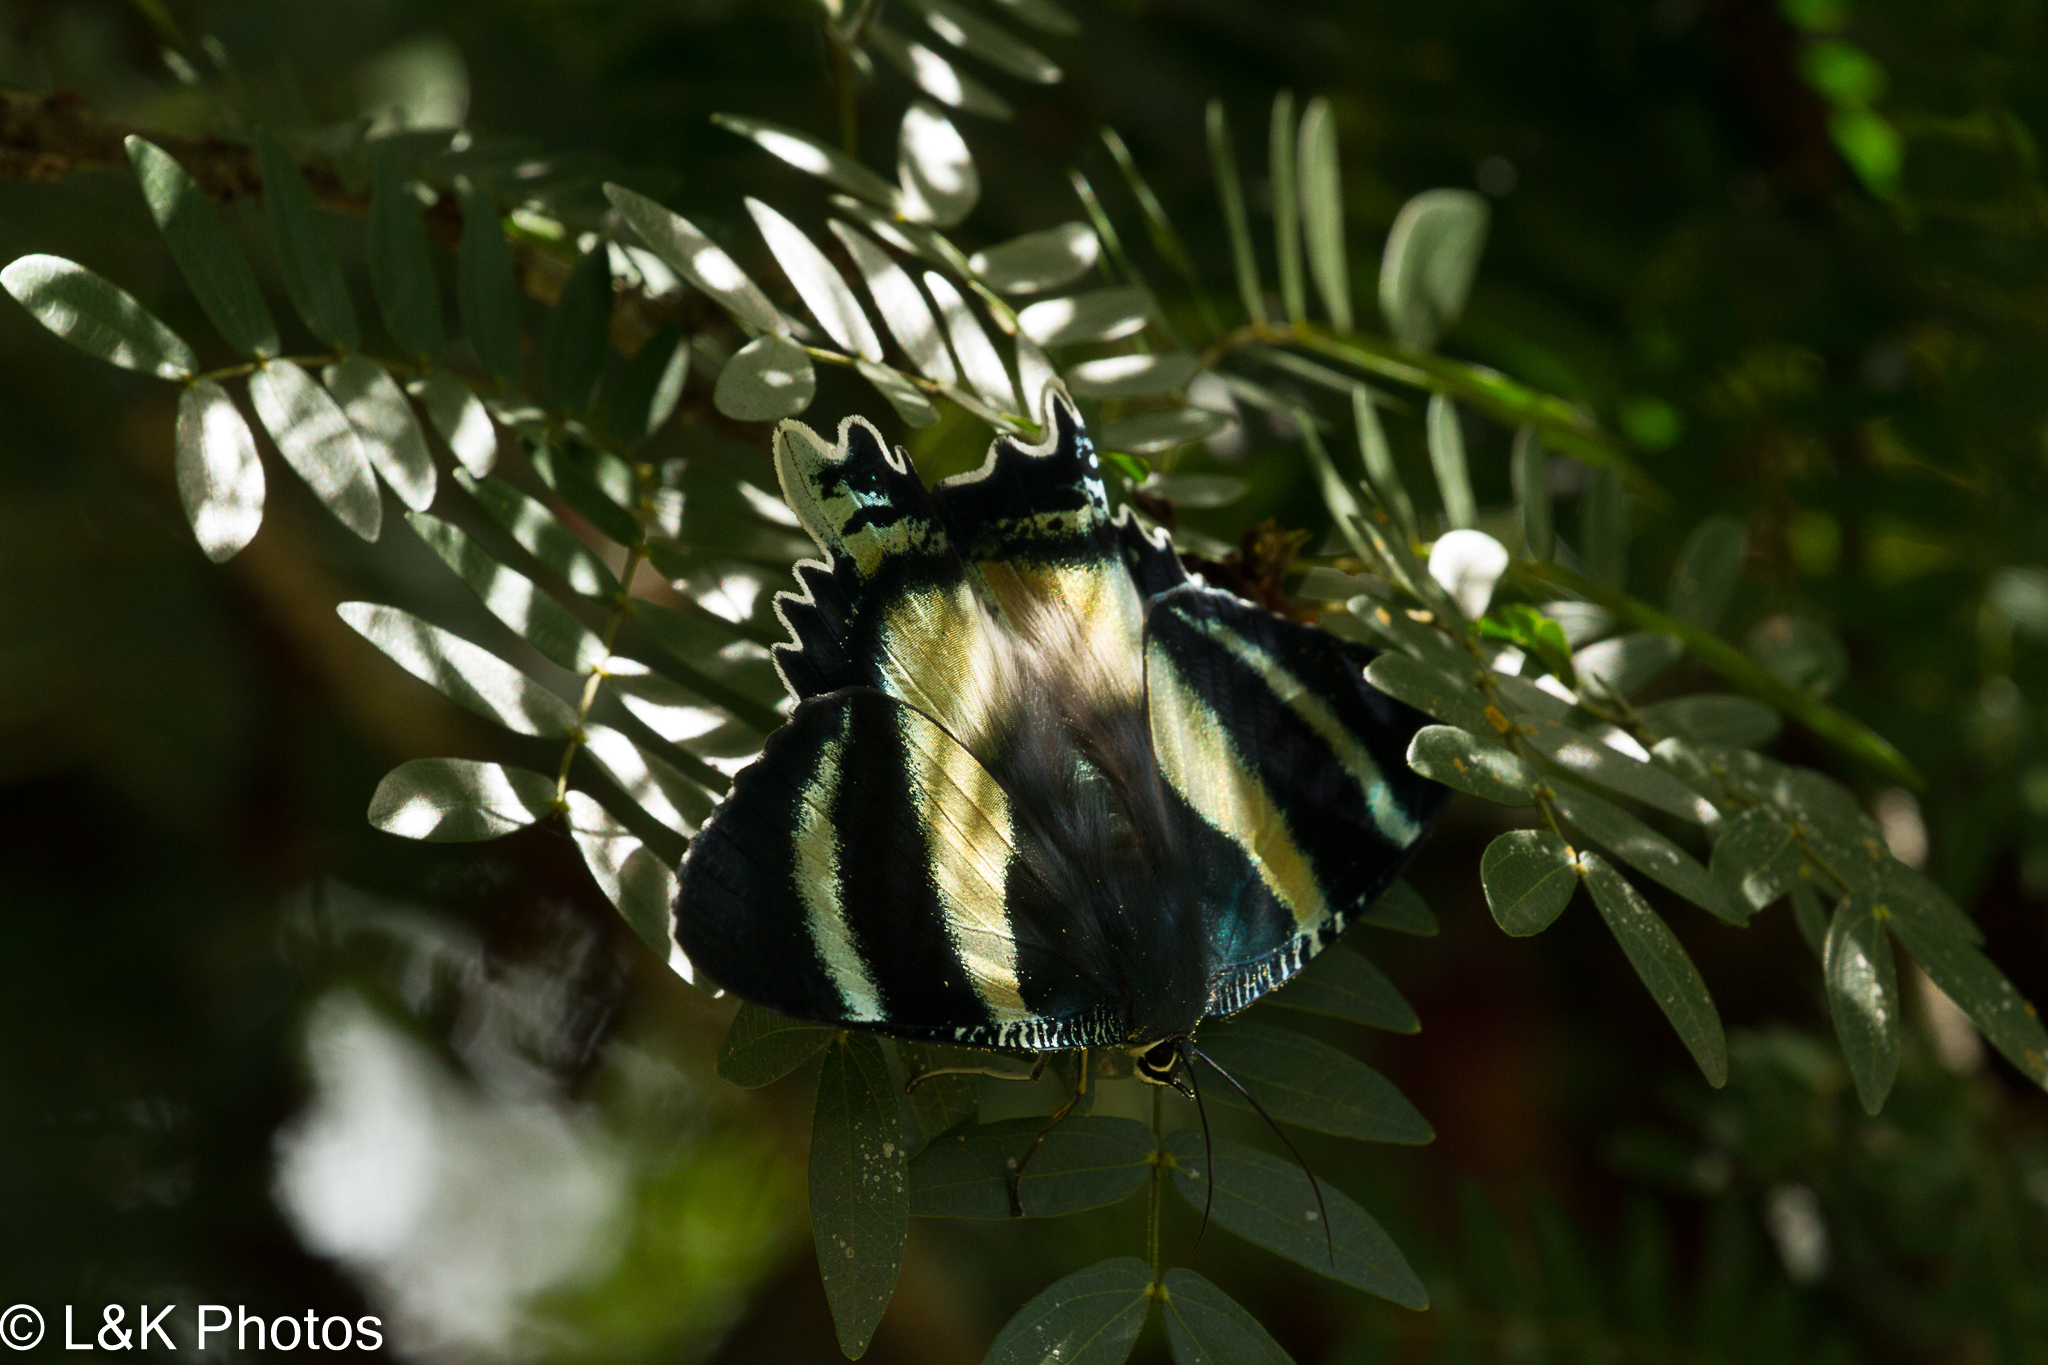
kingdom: Animalia
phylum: Arthropoda
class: Insecta
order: Lepidoptera
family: Uraniidae
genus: Alcides
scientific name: Alcides metaurus
